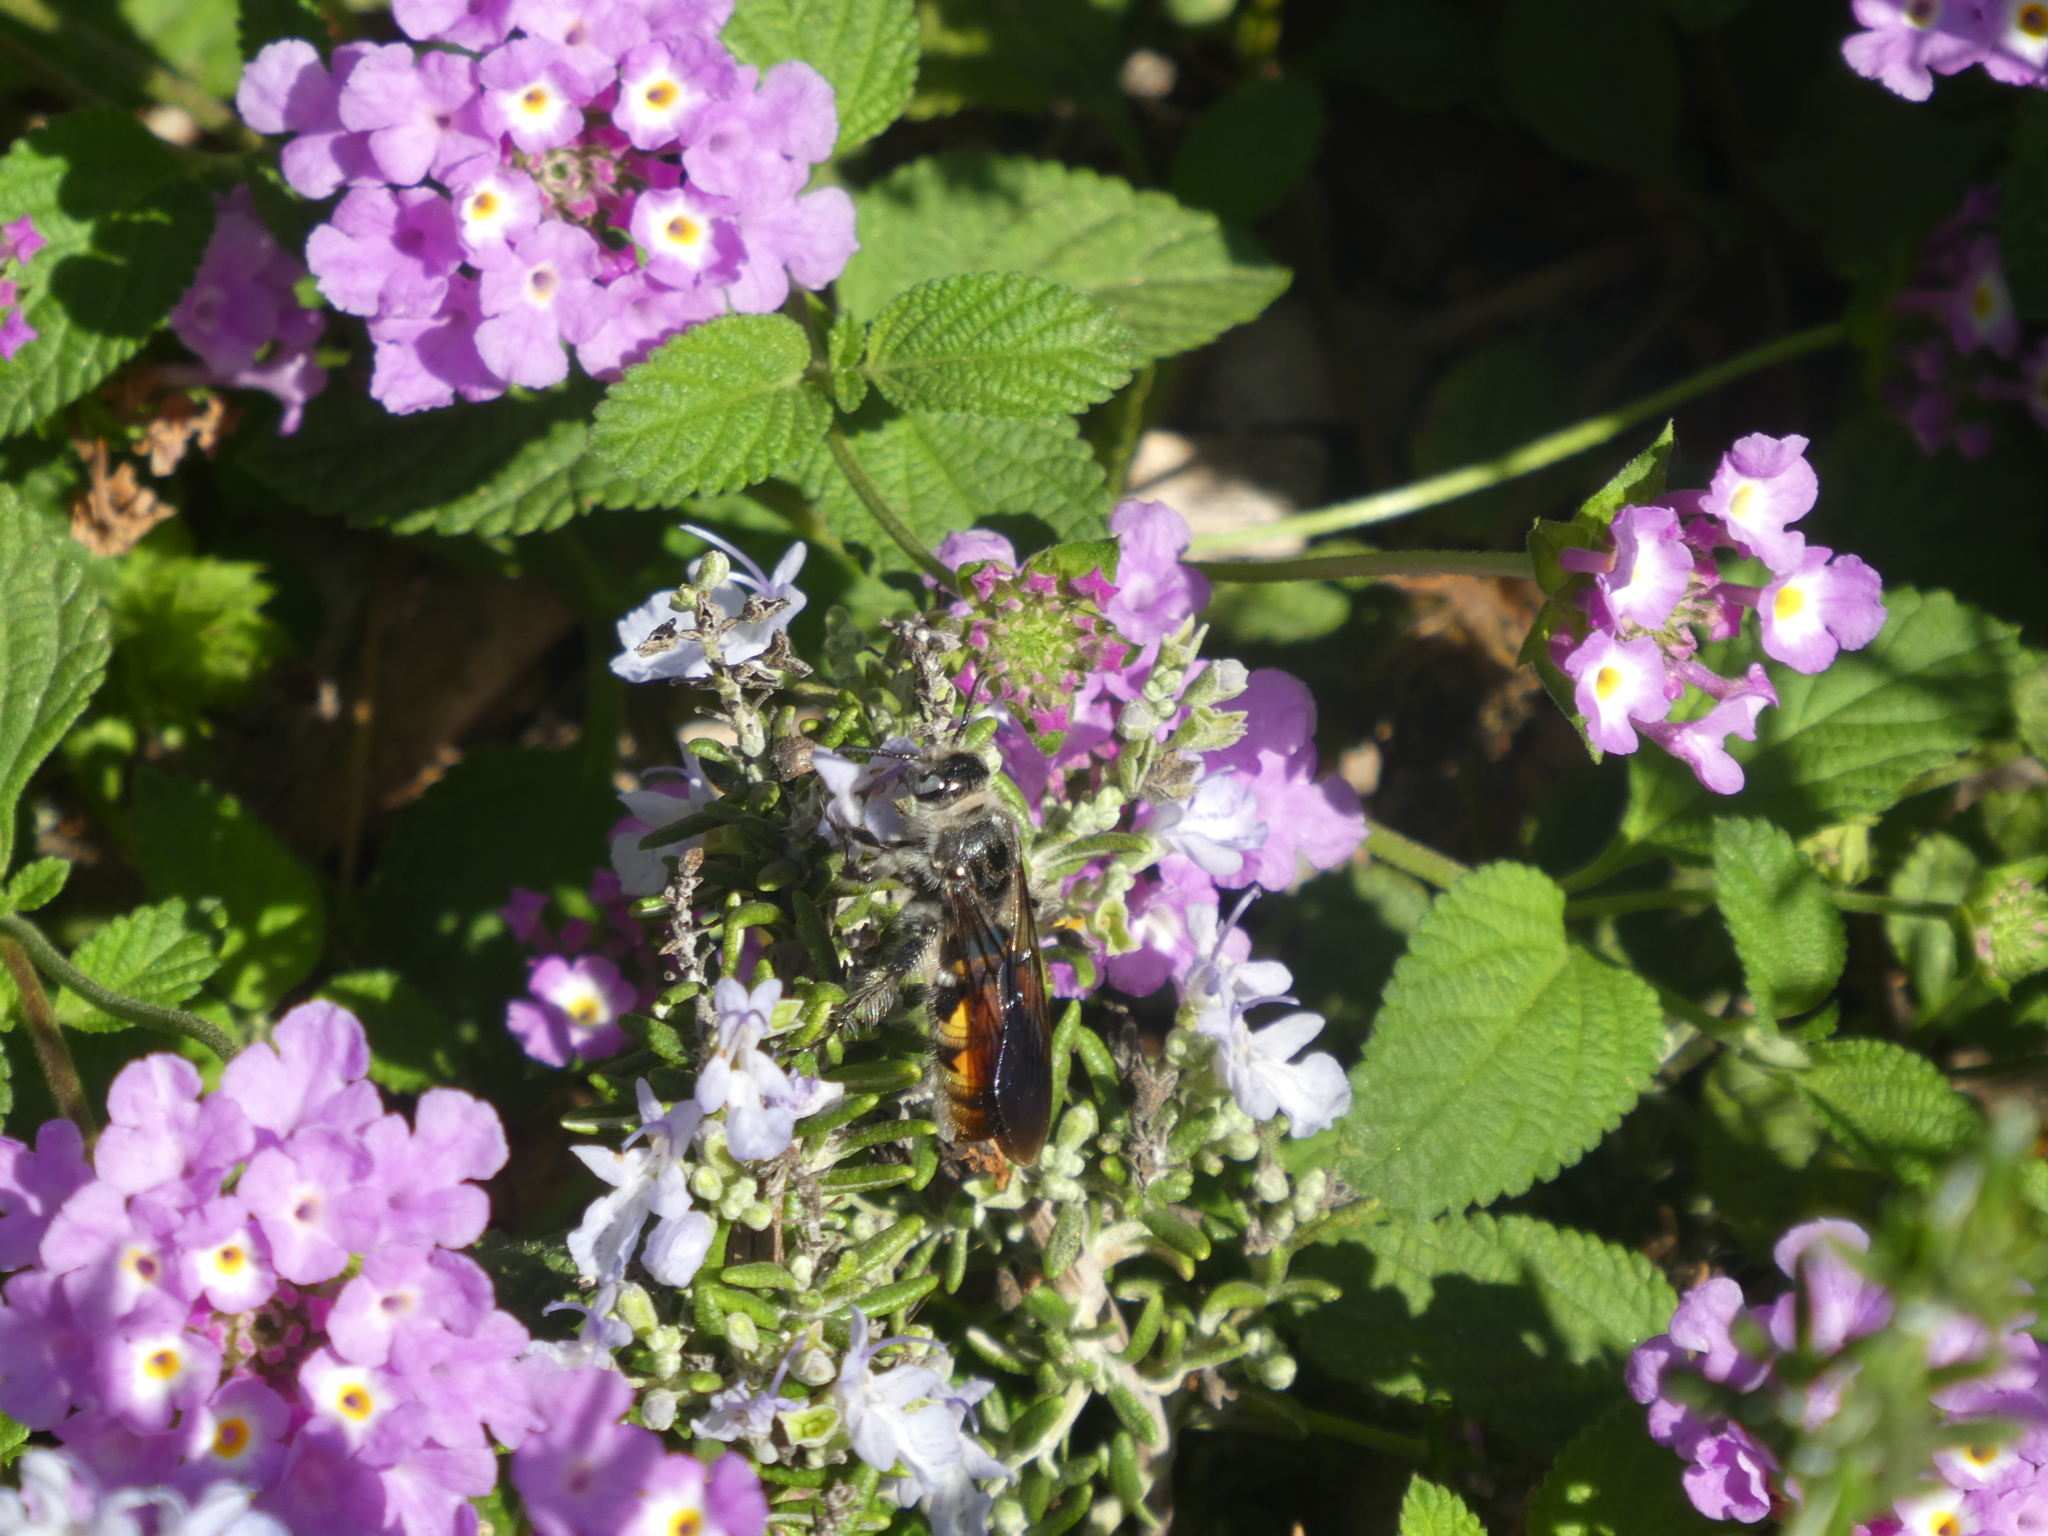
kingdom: Animalia
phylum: Arthropoda
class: Insecta
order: Hymenoptera
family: Scoliidae
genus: Dielis
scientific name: Dielis tolteca
